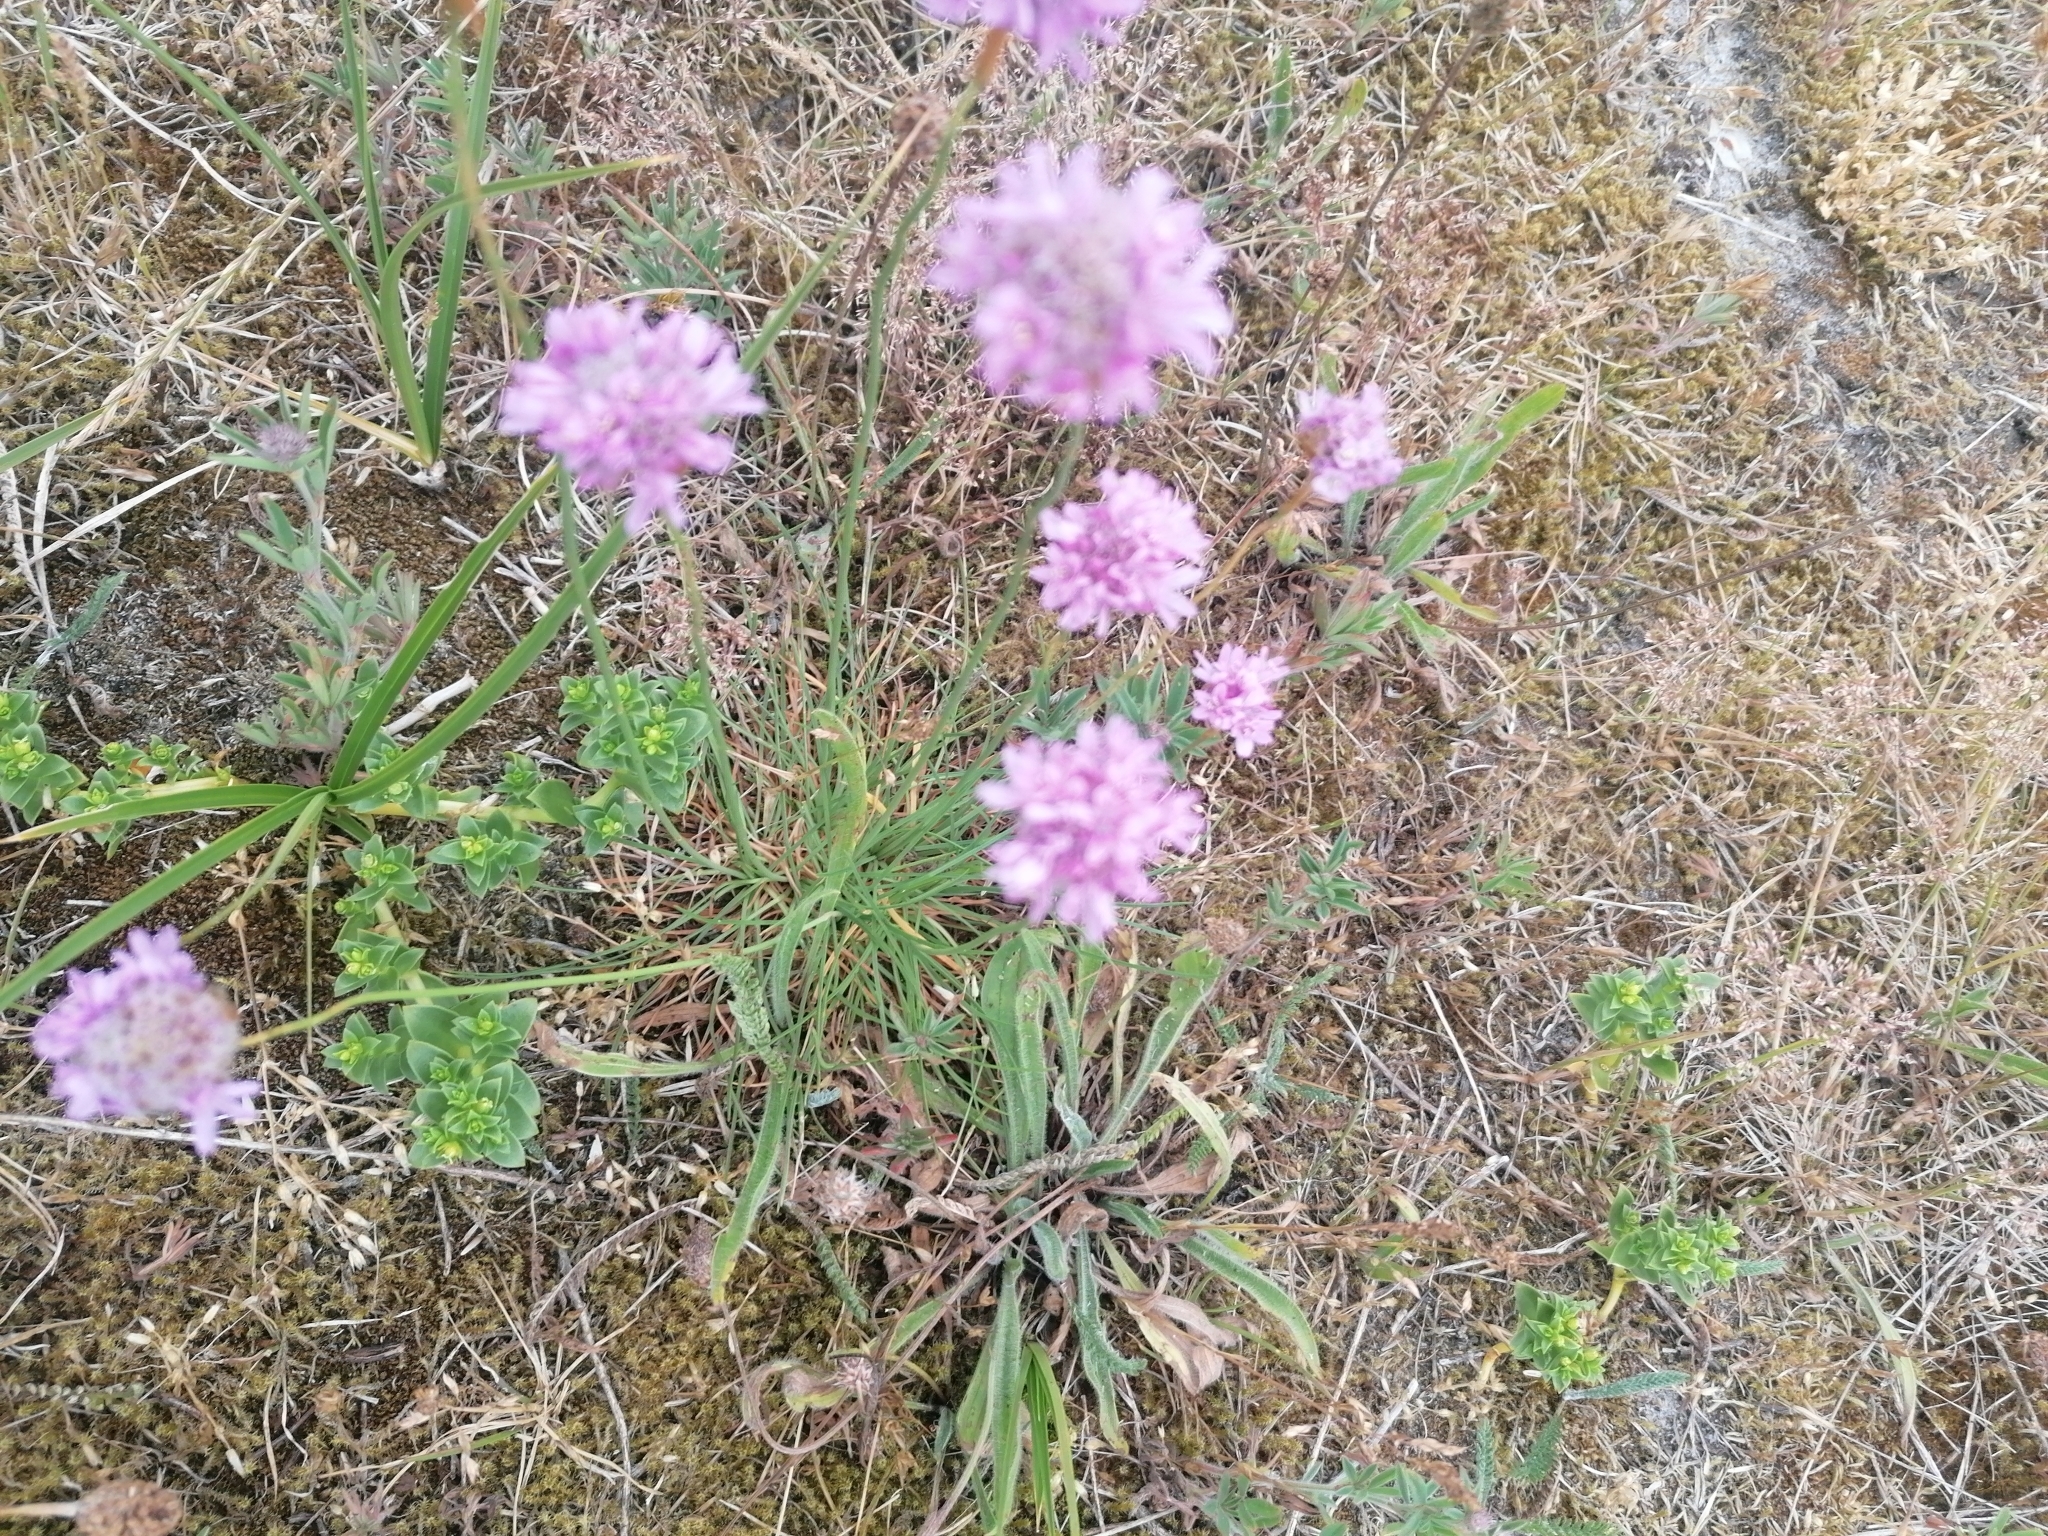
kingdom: Plantae
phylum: Tracheophyta
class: Magnoliopsida
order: Caryophyllales
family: Plumbaginaceae
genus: Armeria
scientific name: Armeria maritima
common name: Thrift
